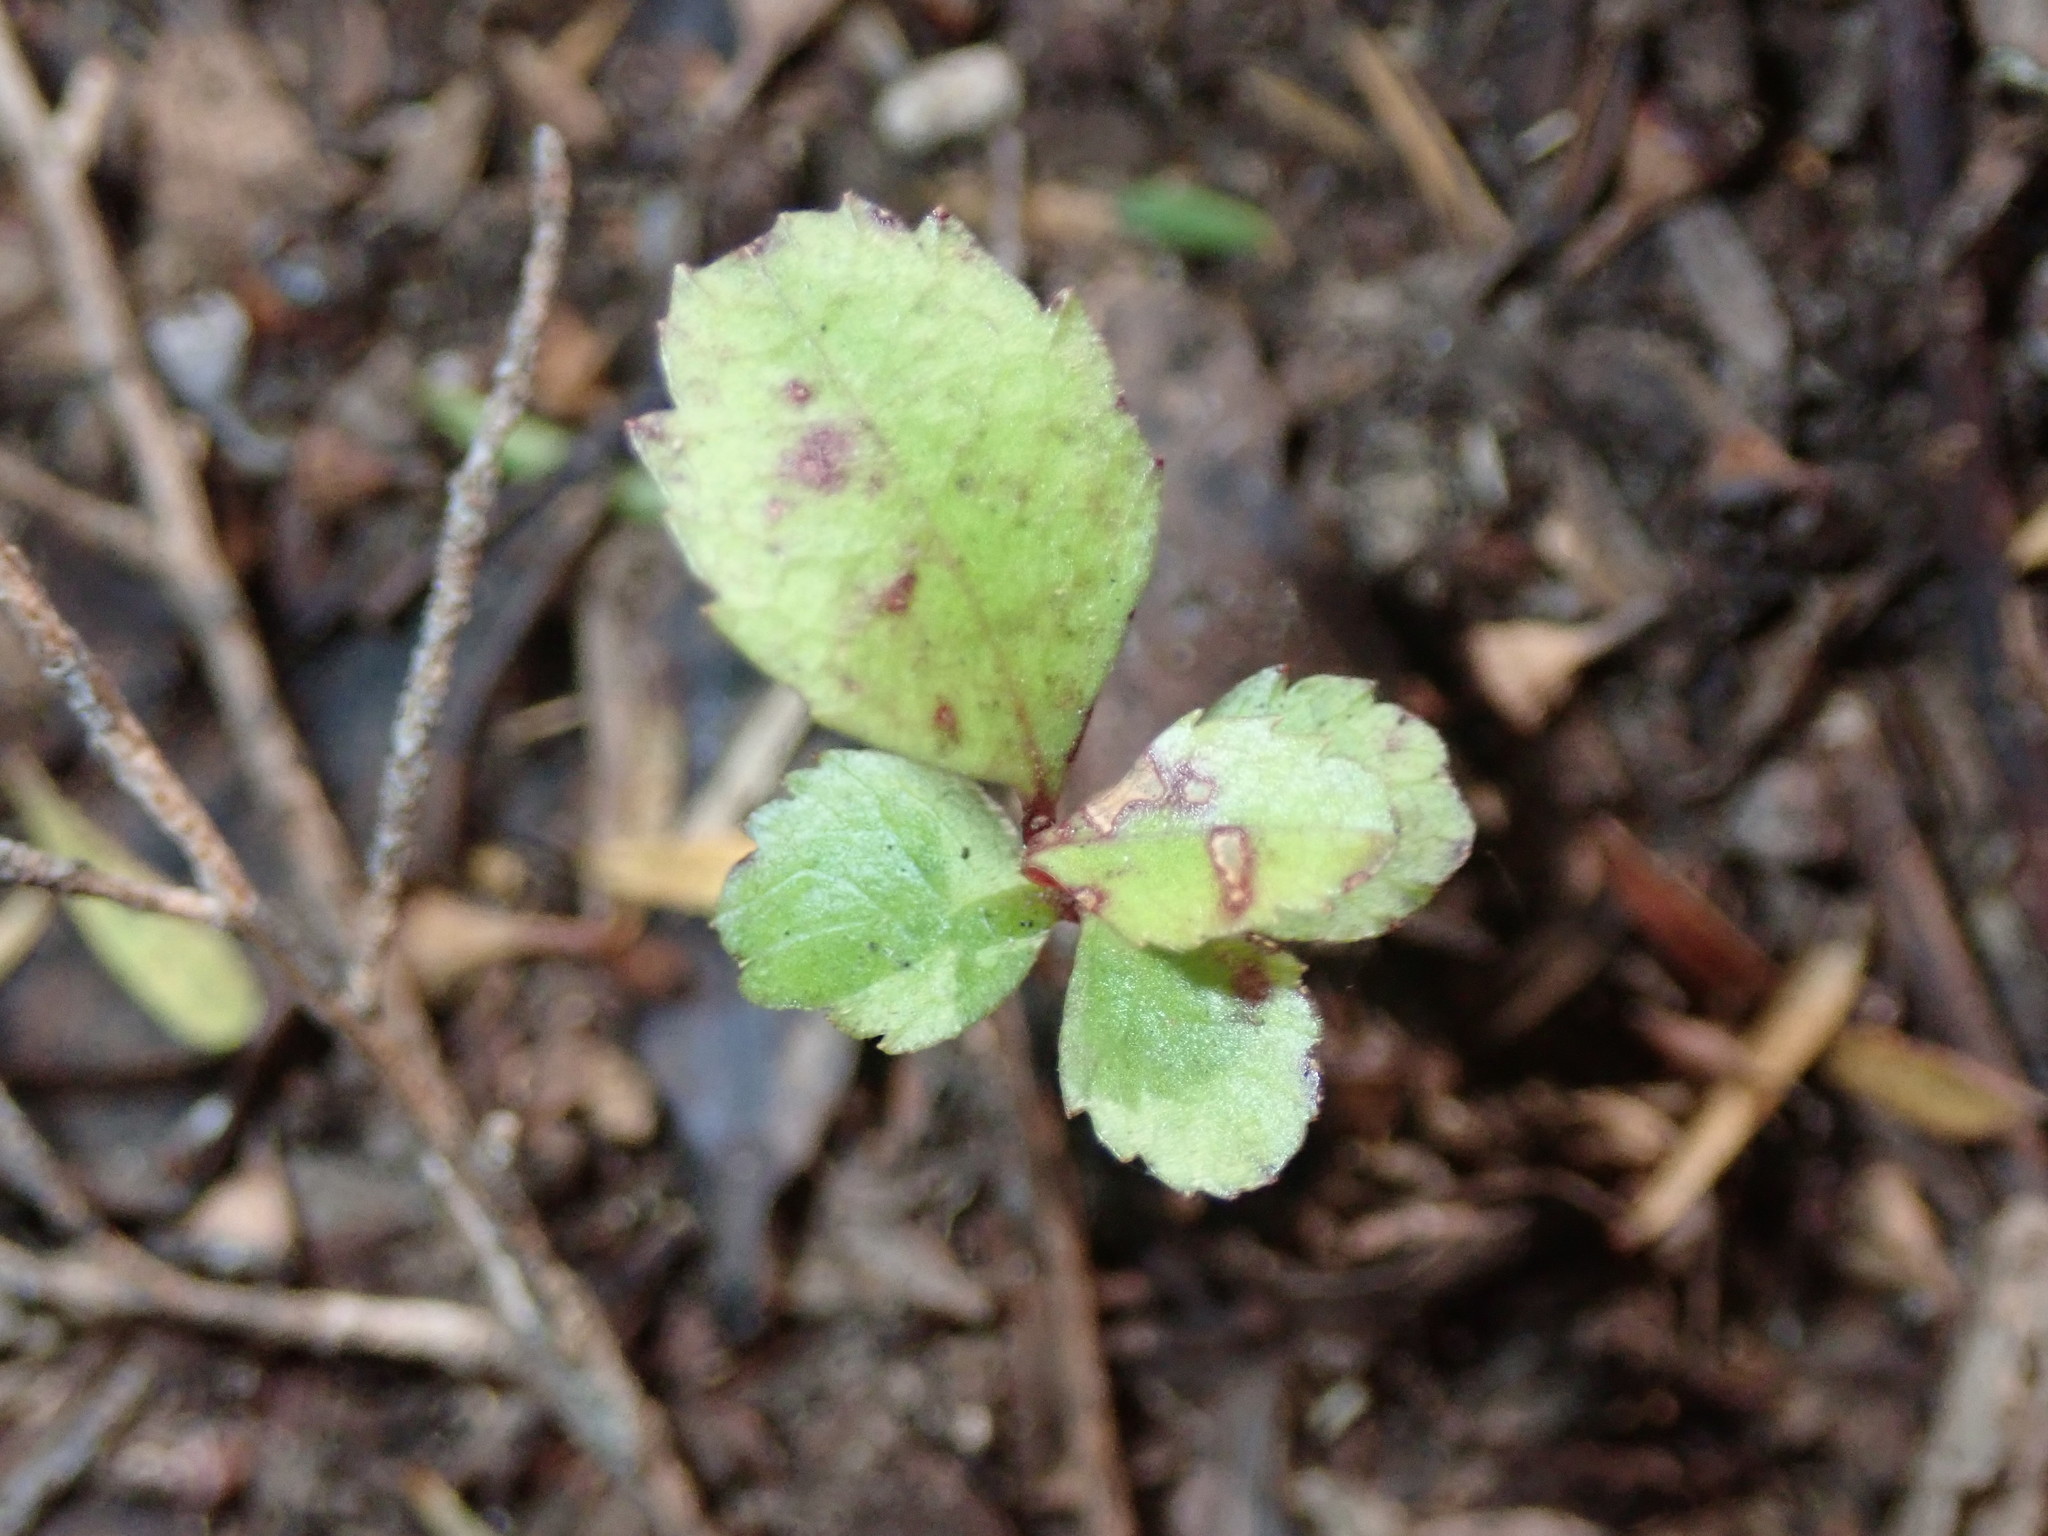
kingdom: Plantae
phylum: Tracheophyta
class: Magnoliopsida
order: Ericales
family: Primulaceae
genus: Myrsine
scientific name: Myrsine australis
